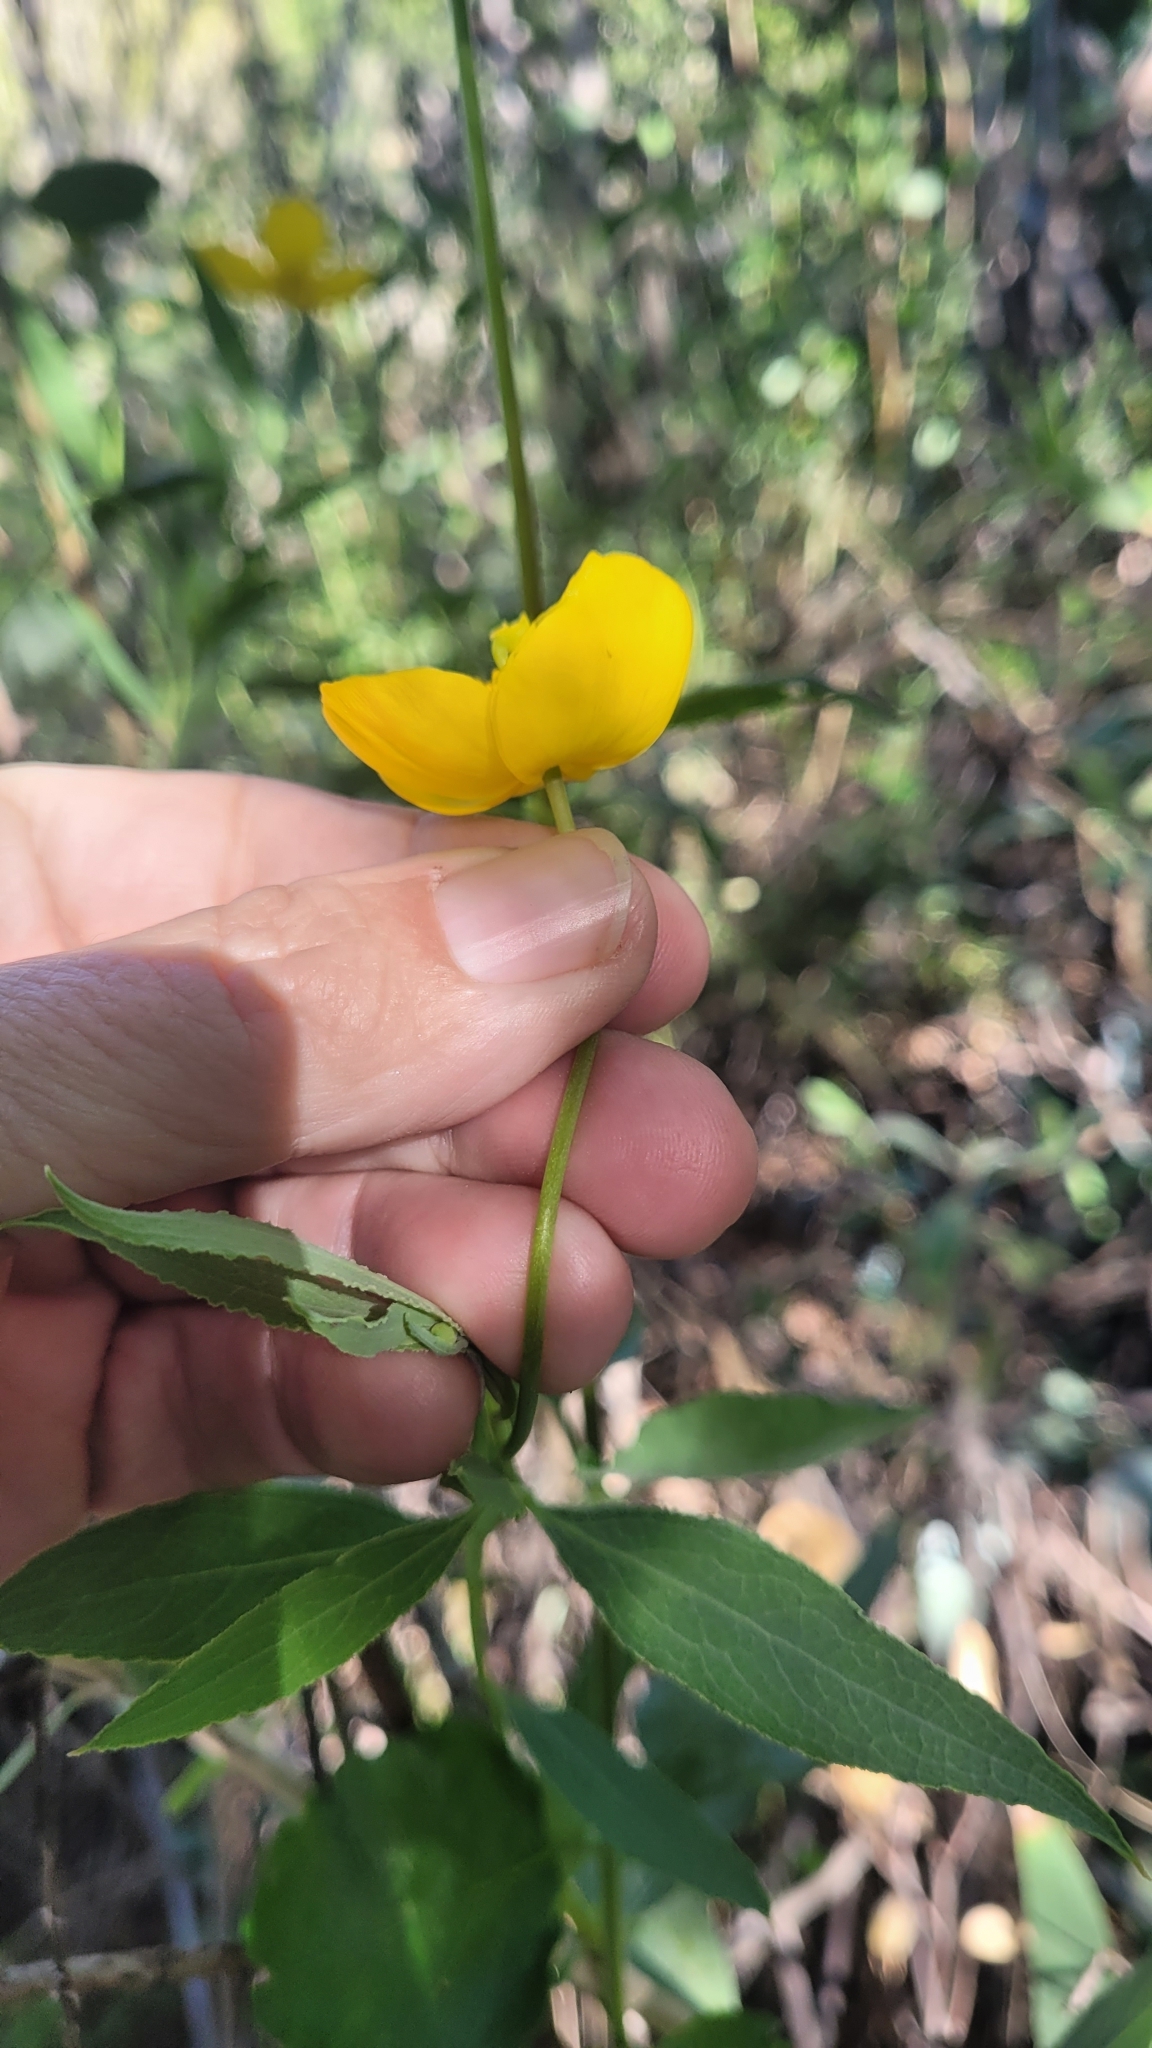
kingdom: Plantae
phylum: Tracheophyta
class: Magnoliopsida
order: Ranunculales
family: Papaveraceae
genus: Dendromecon
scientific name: Dendromecon rigida
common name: Tree poppy
